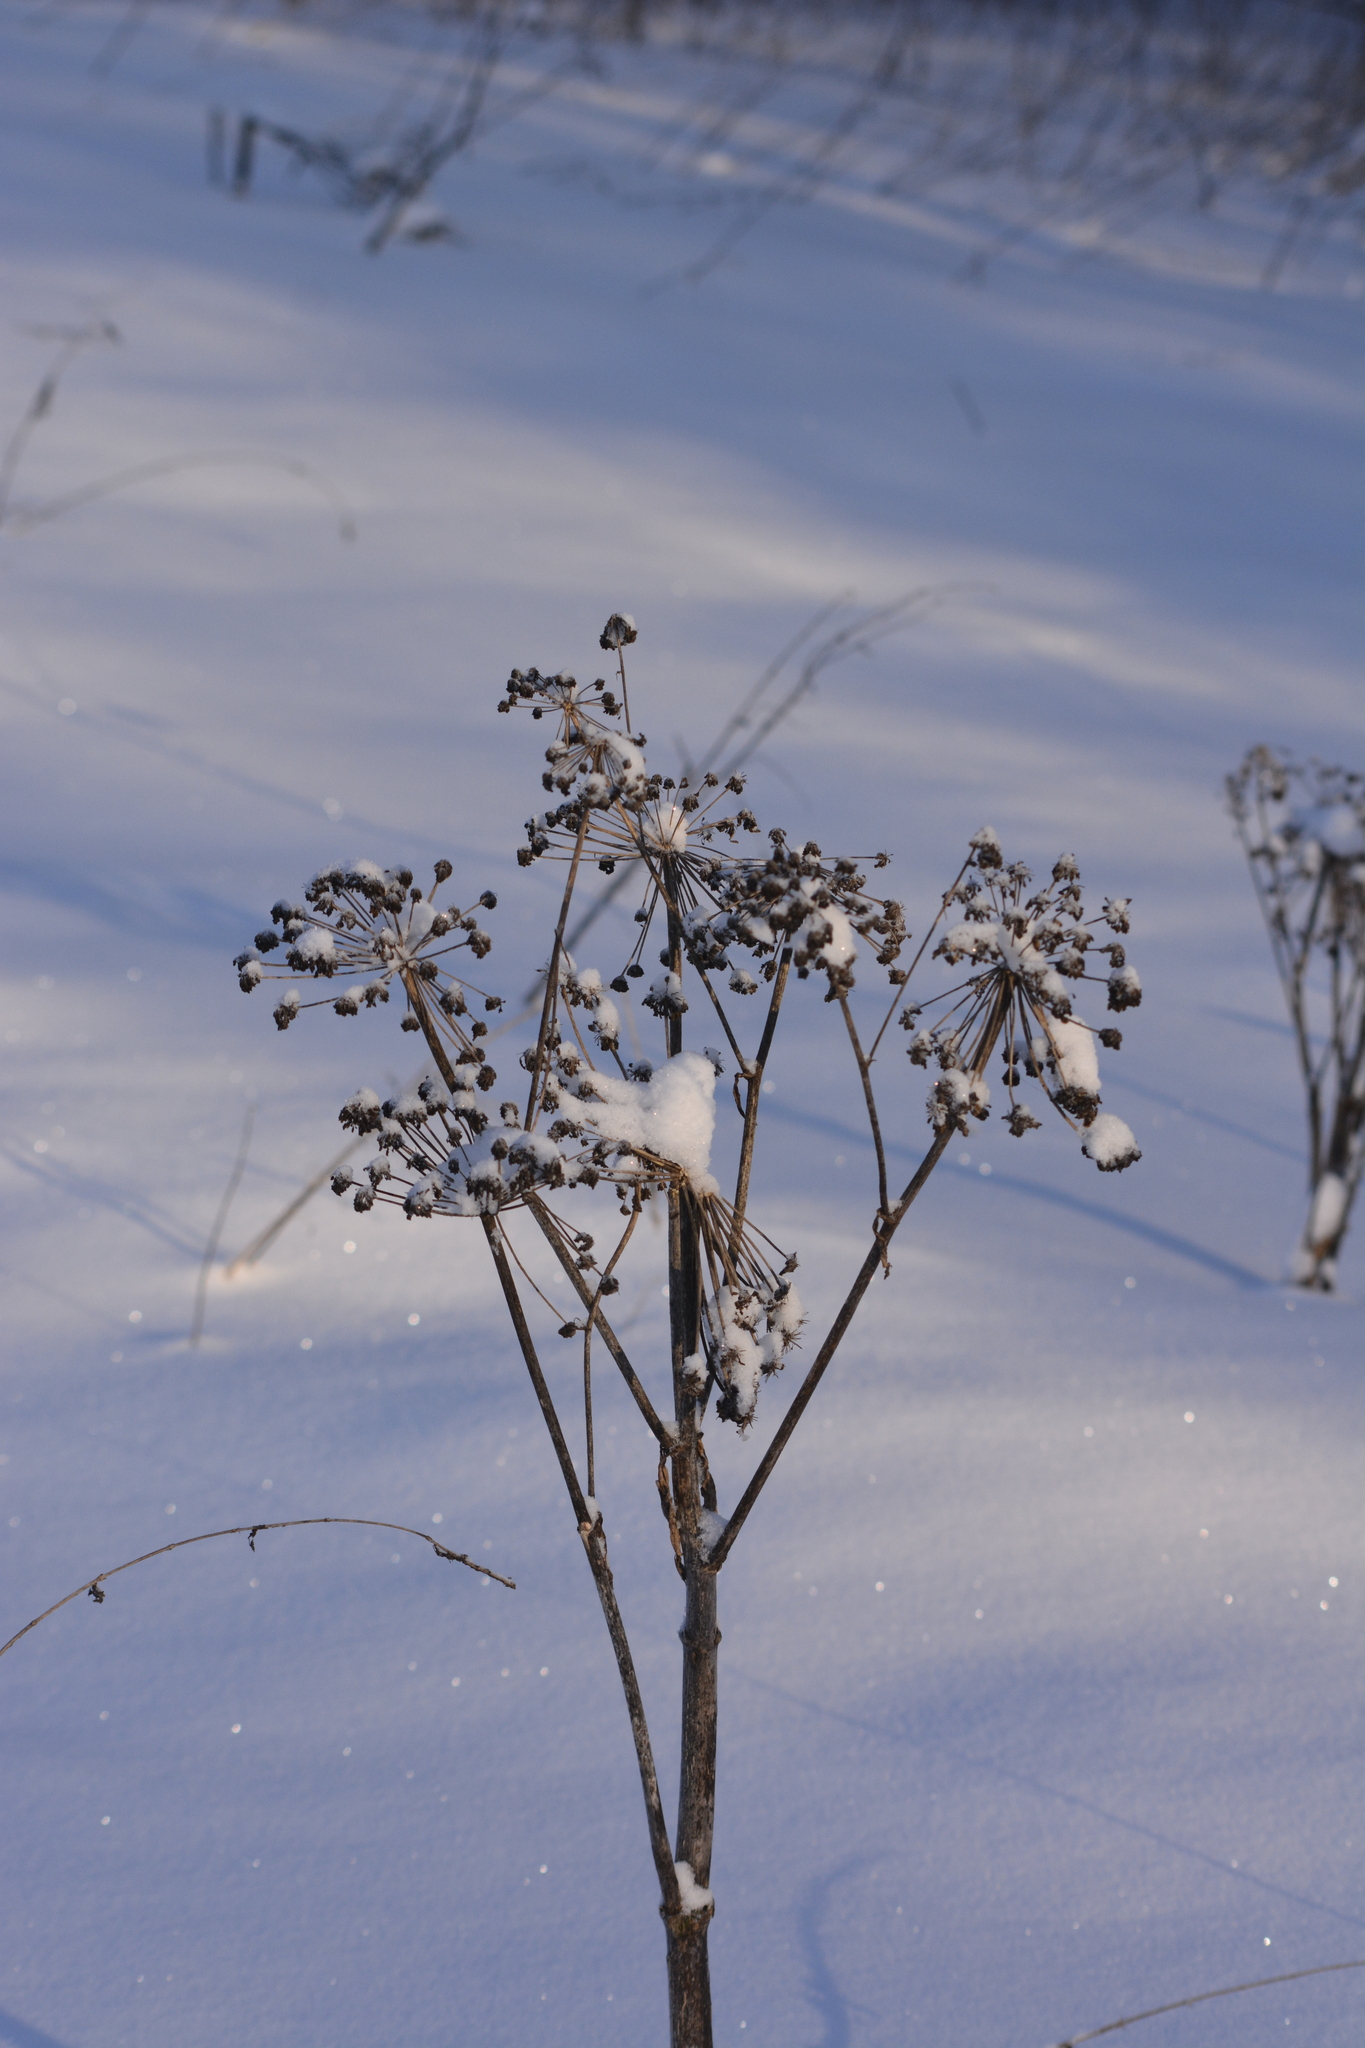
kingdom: Plantae
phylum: Tracheophyta
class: Magnoliopsida
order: Apiales
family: Apiaceae
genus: Angelica
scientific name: Angelica sylvestris
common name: Wild angelica
